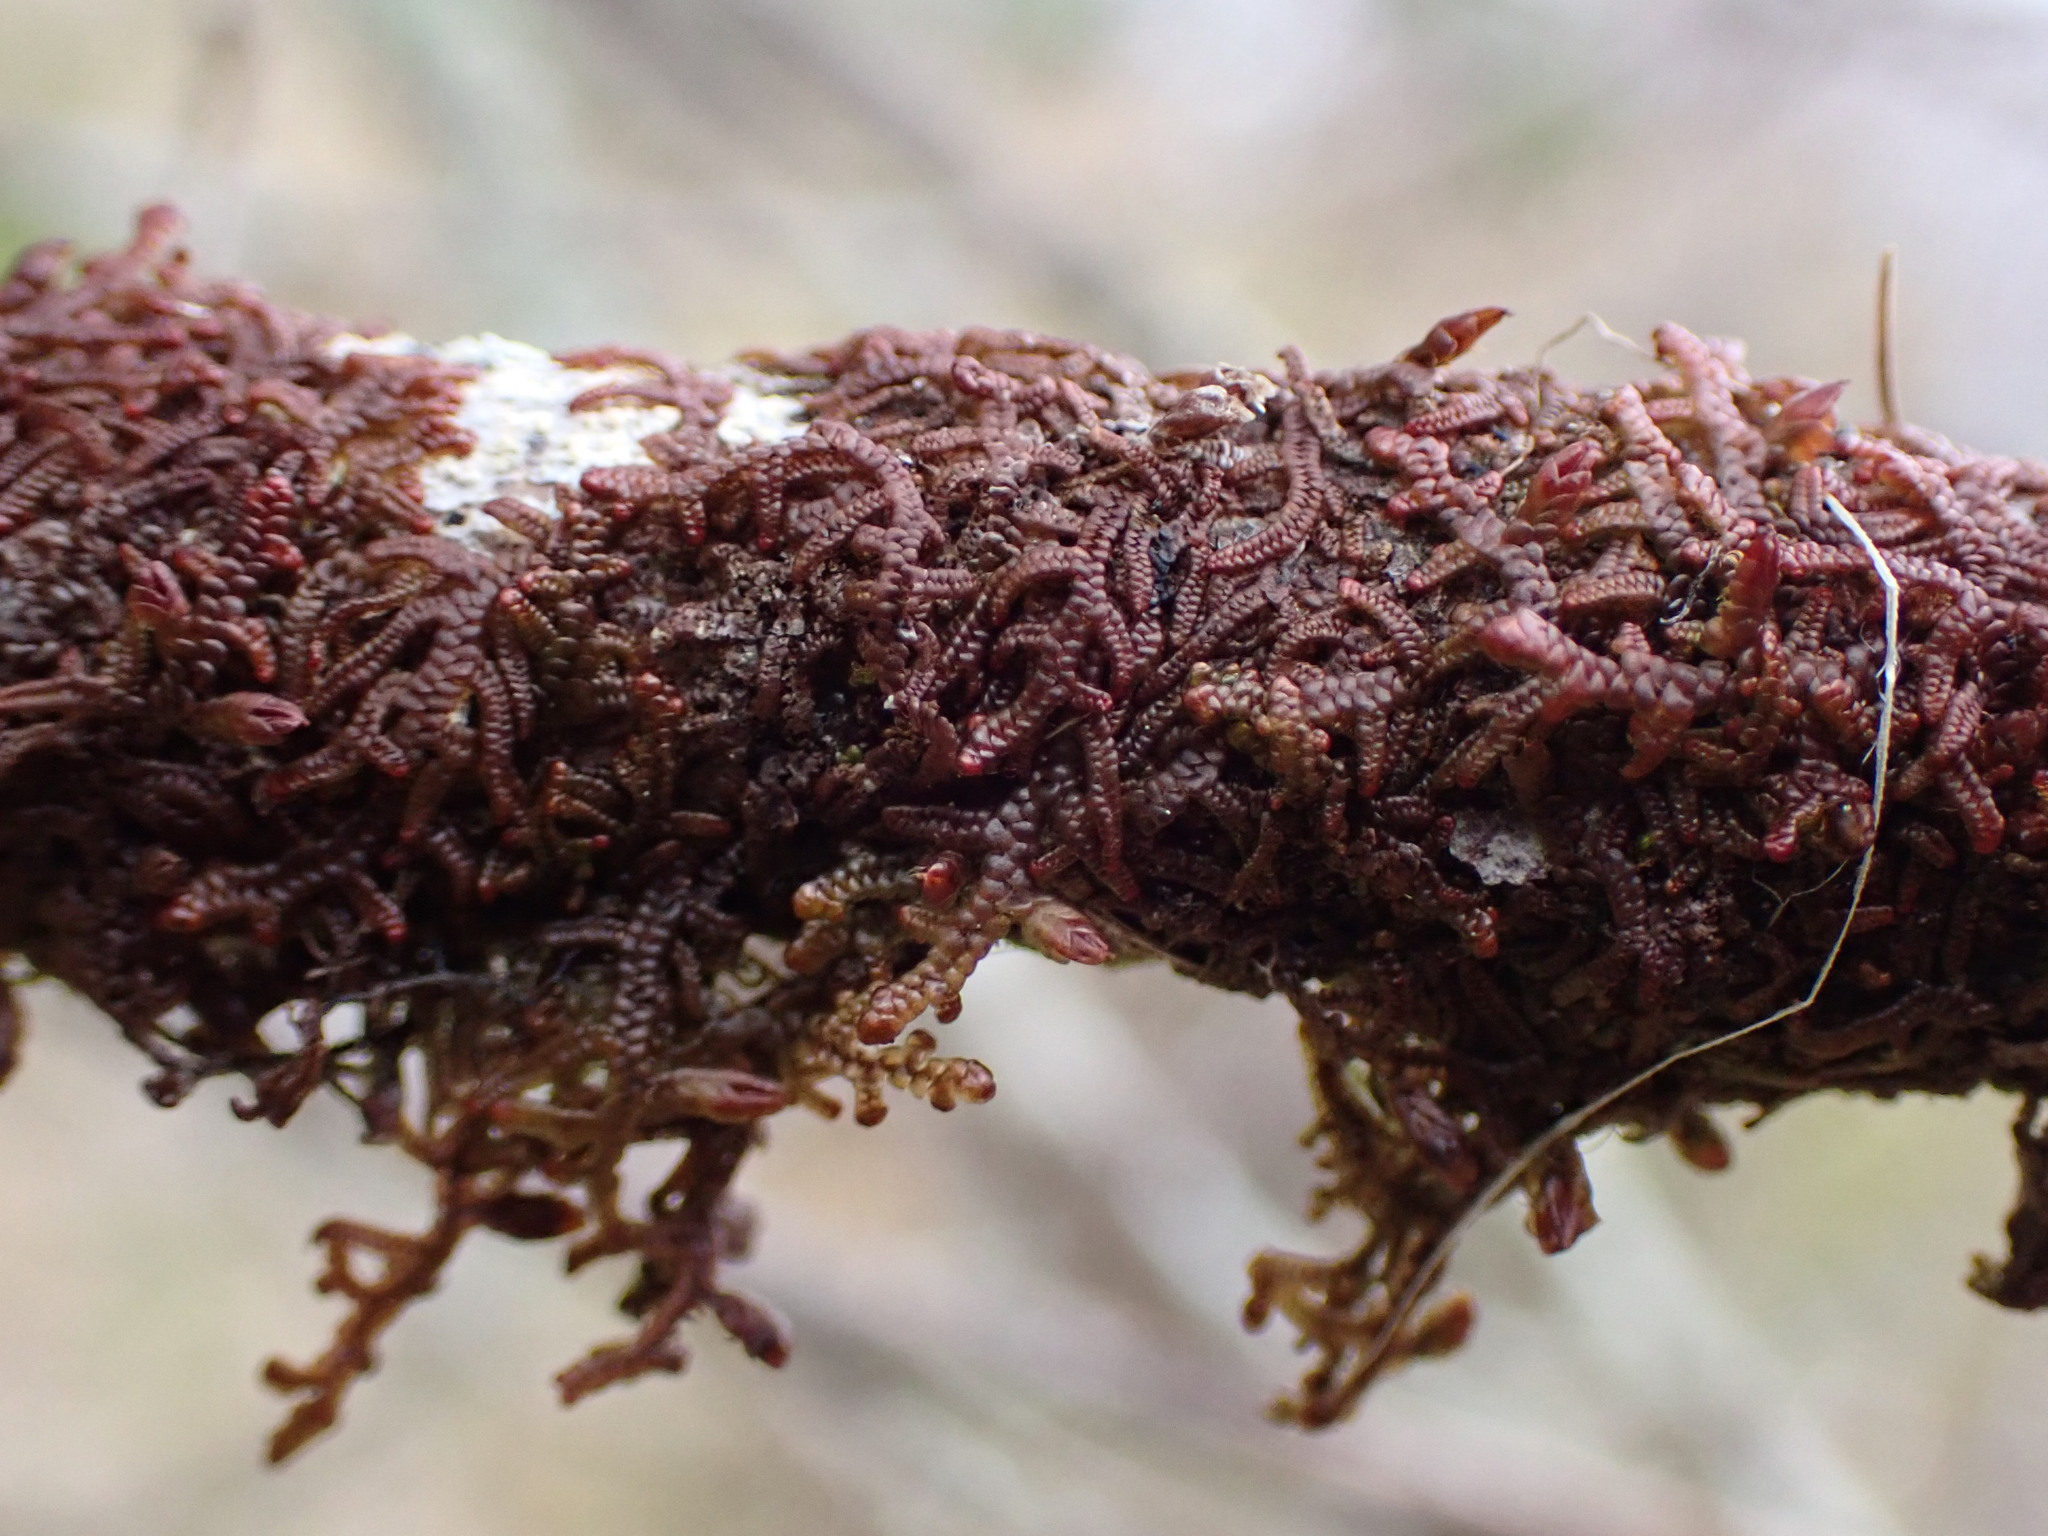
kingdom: Plantae
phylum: Marchantiophyta
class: Jungermanniopsida
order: Porellales
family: Frullaniaceae
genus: Frullania
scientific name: Frullania nisquallensis
